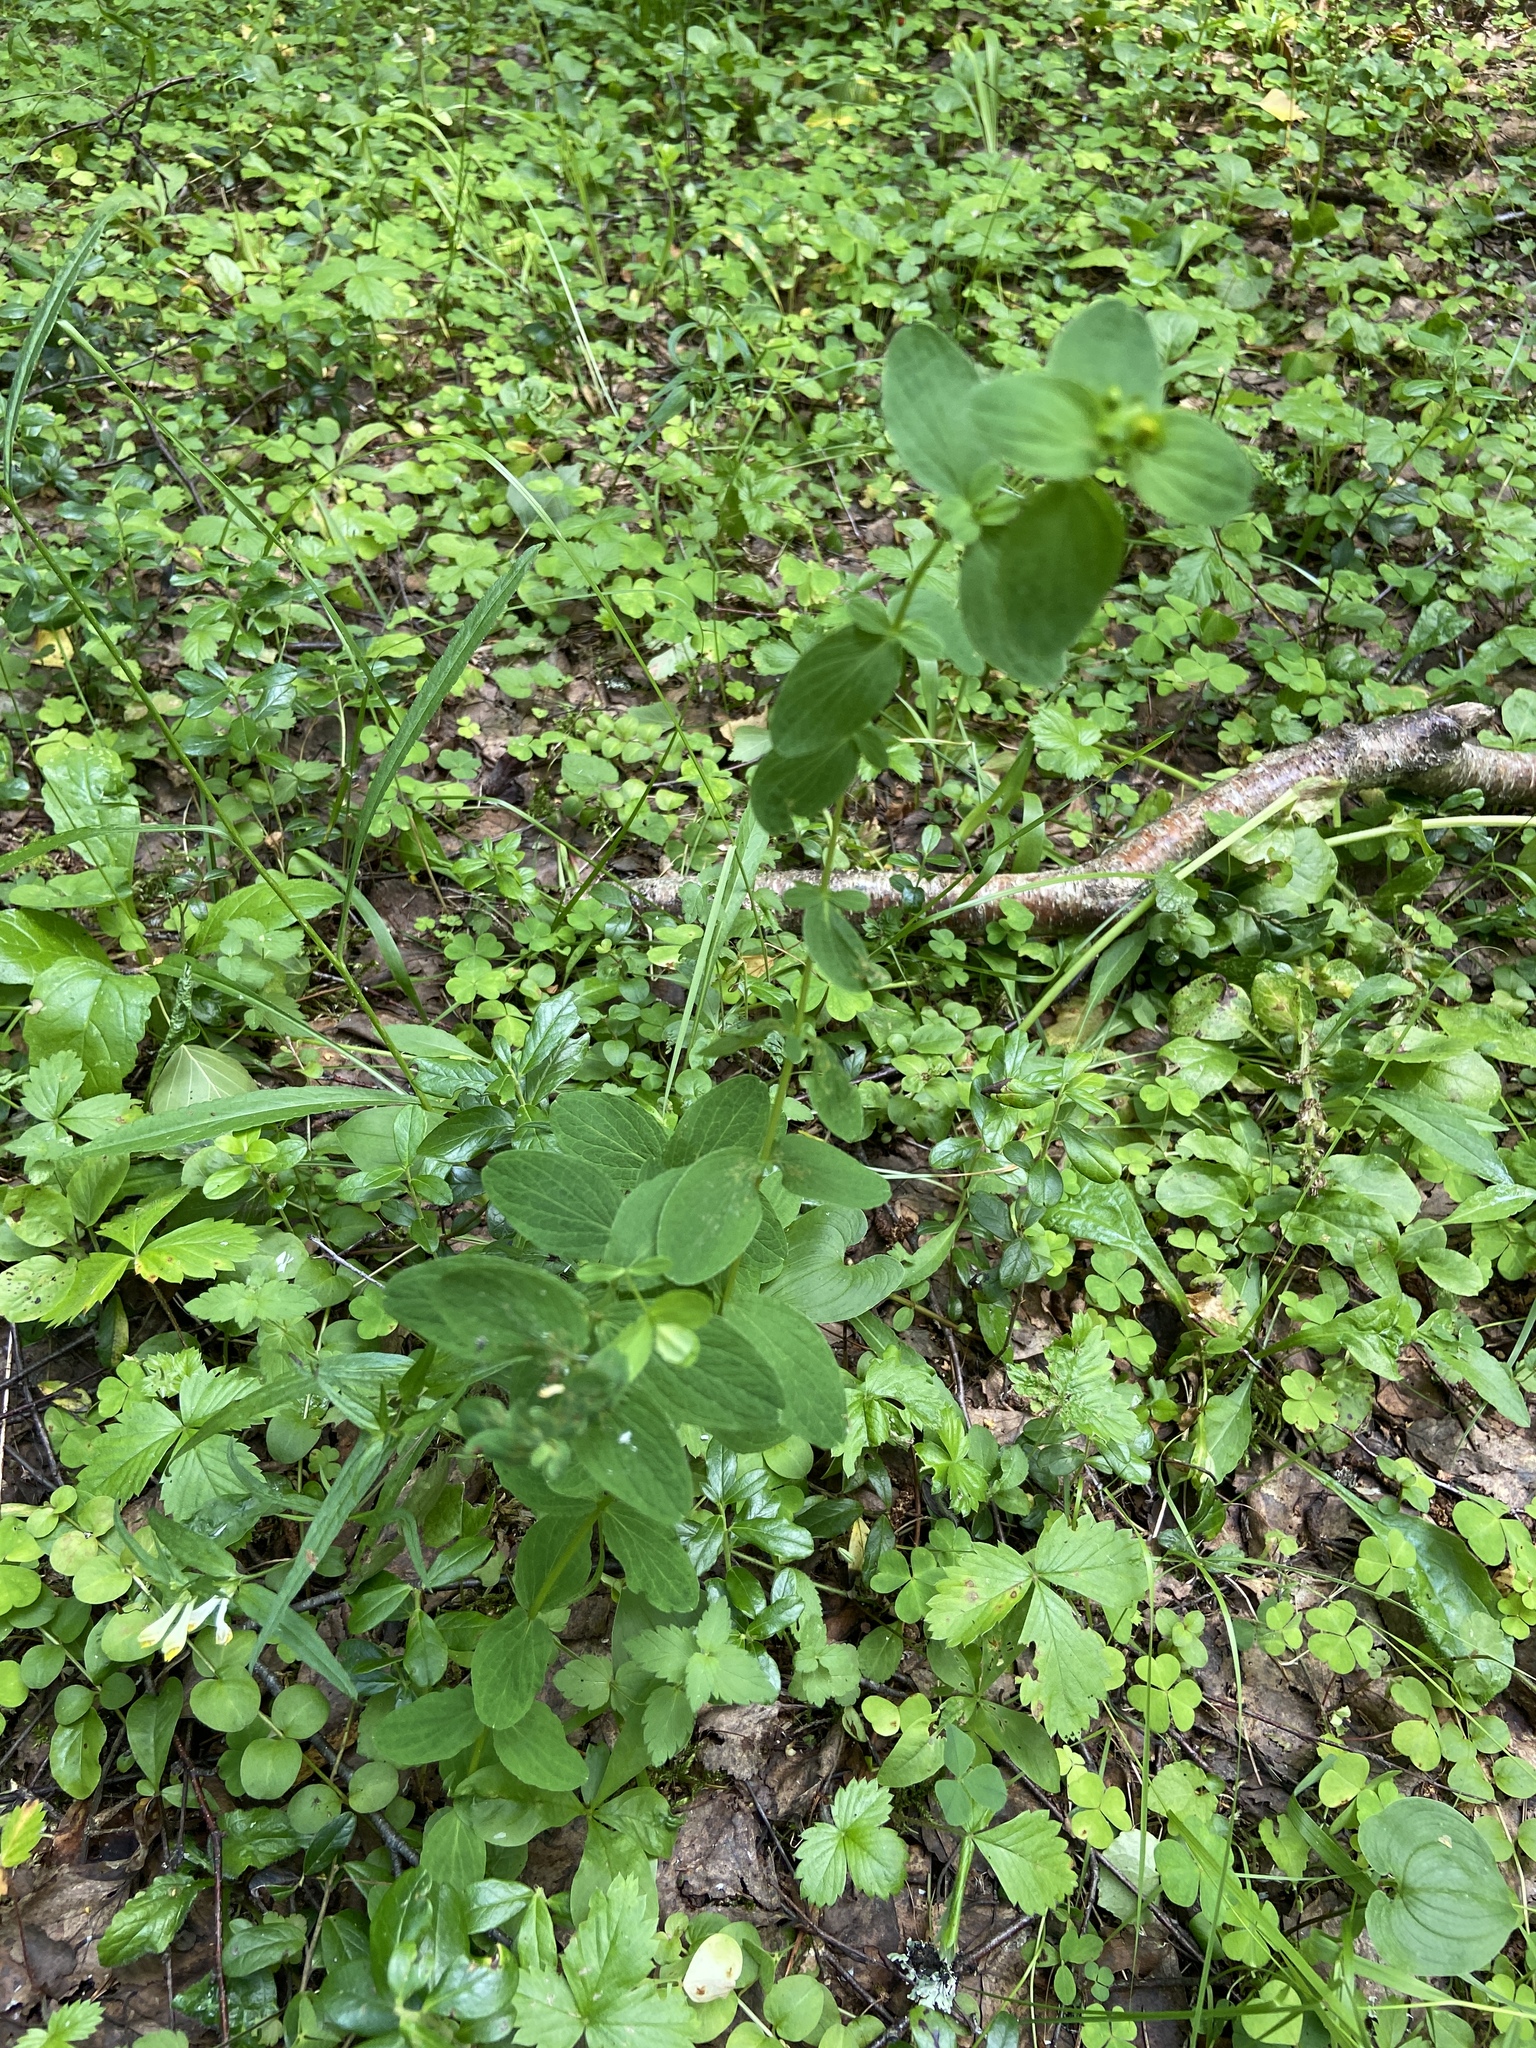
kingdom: Plantae
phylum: Tracheophyta
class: Magnoliopsida
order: Malpighiales
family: Hypericaceae
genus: Hypericum
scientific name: Hypericum maculatum
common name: Imperforate st. john's-wort
